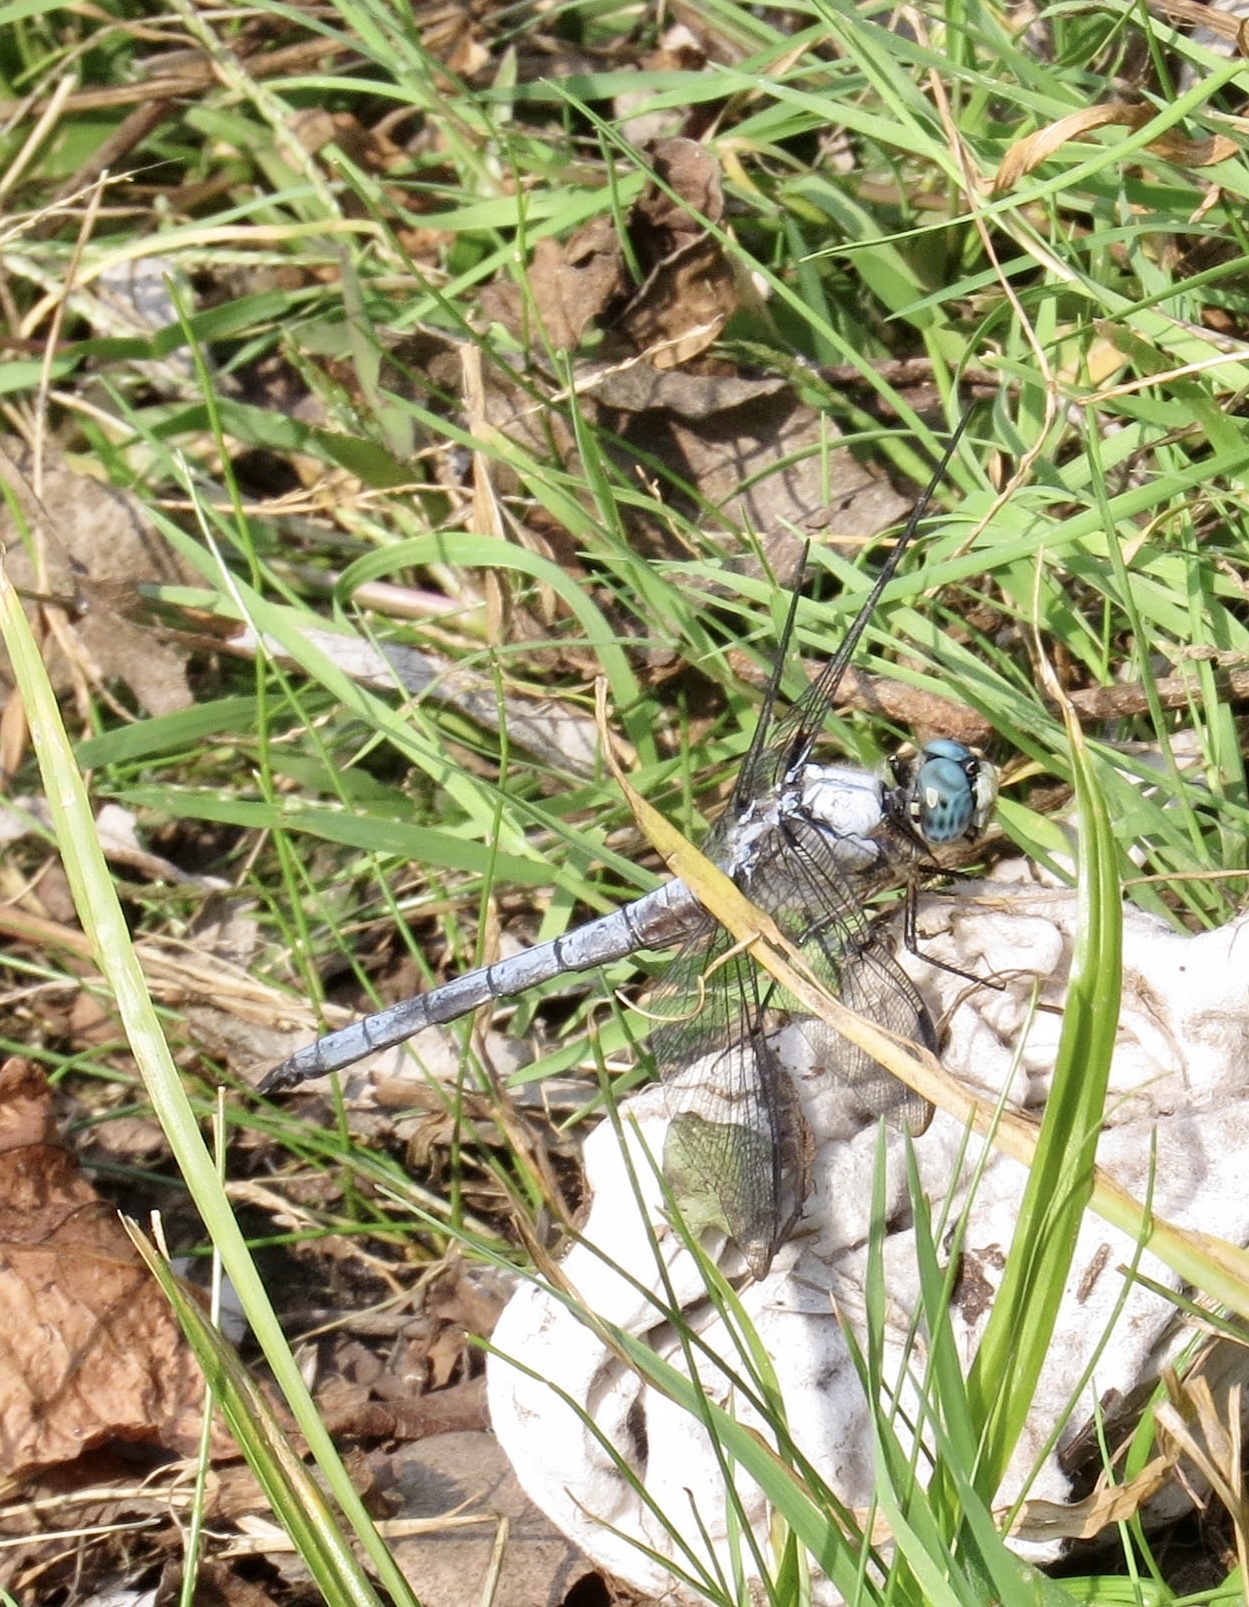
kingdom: Animalia
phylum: Arthropoda
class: Insecta
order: Odonata
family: Libellulidae
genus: Libellula
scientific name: Libellula vibrans
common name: Great blue skimmer
